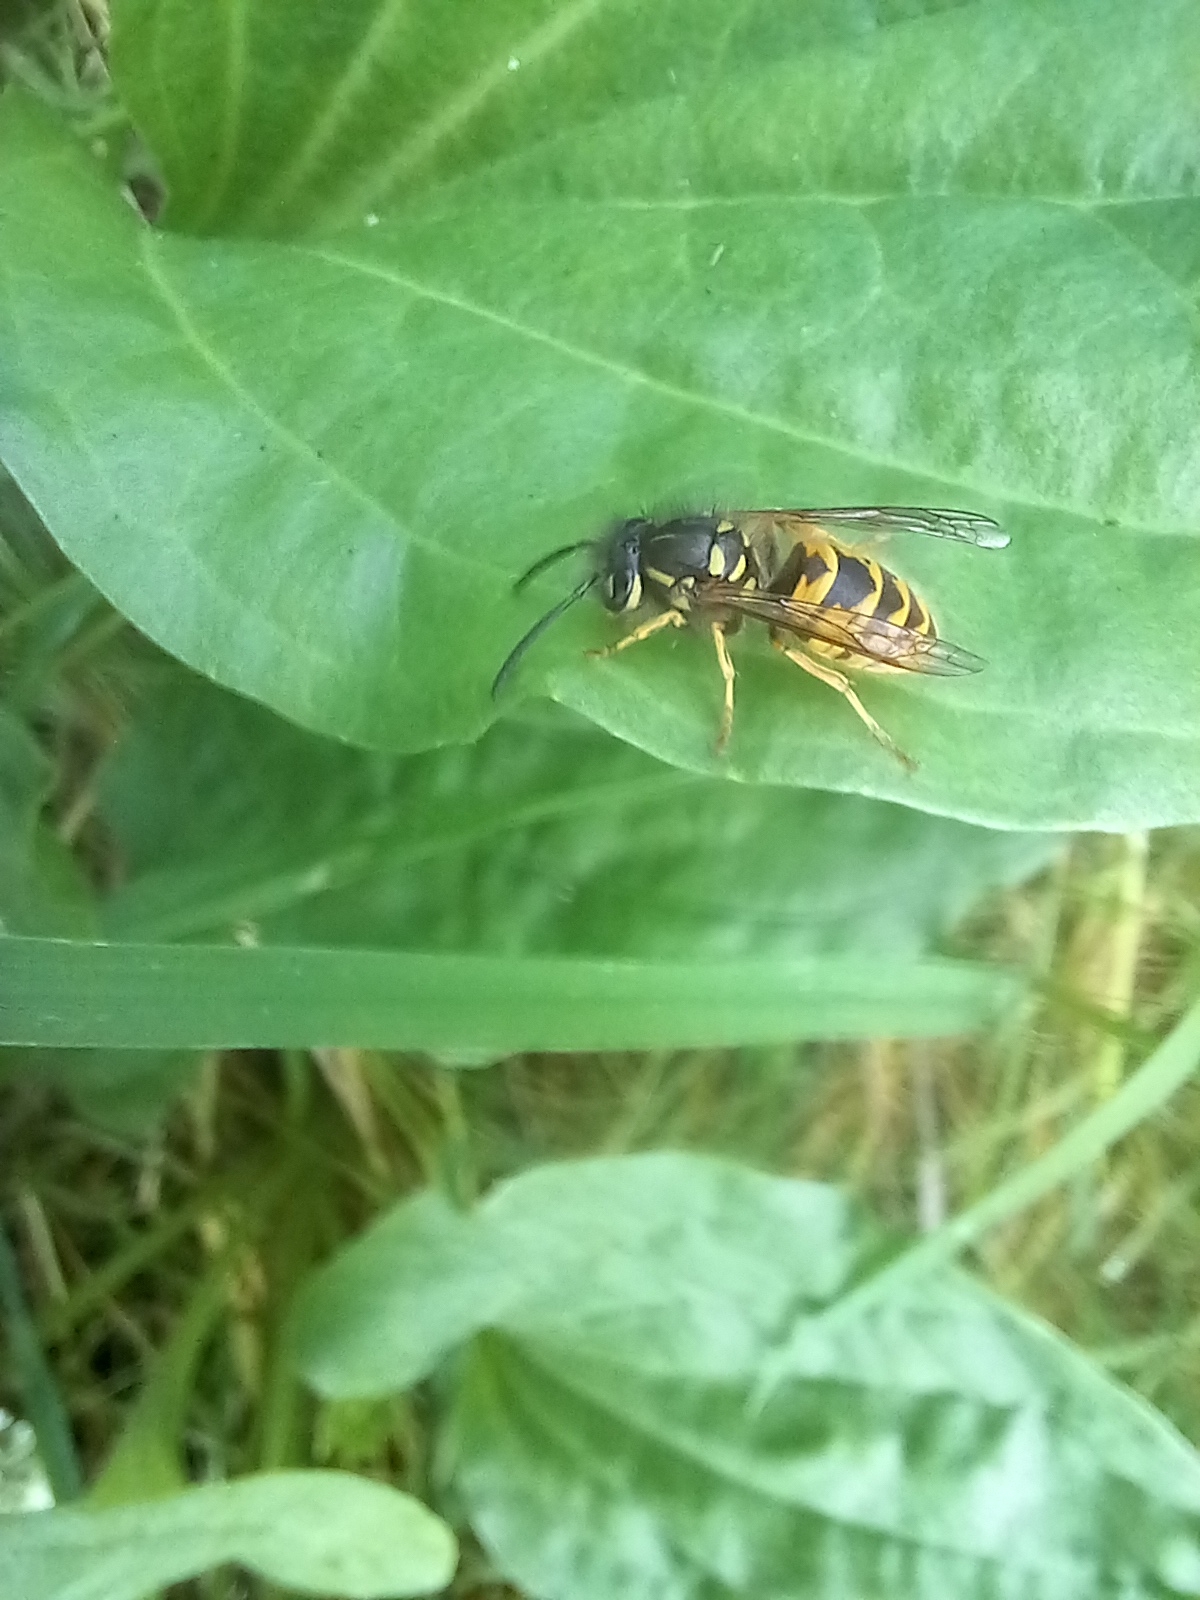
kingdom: Animalia
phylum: Arthropoda
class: Insecta
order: Hymenoptera
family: Vespidae
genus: Vespula
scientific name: Vespula vulgaris
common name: Common wasp
